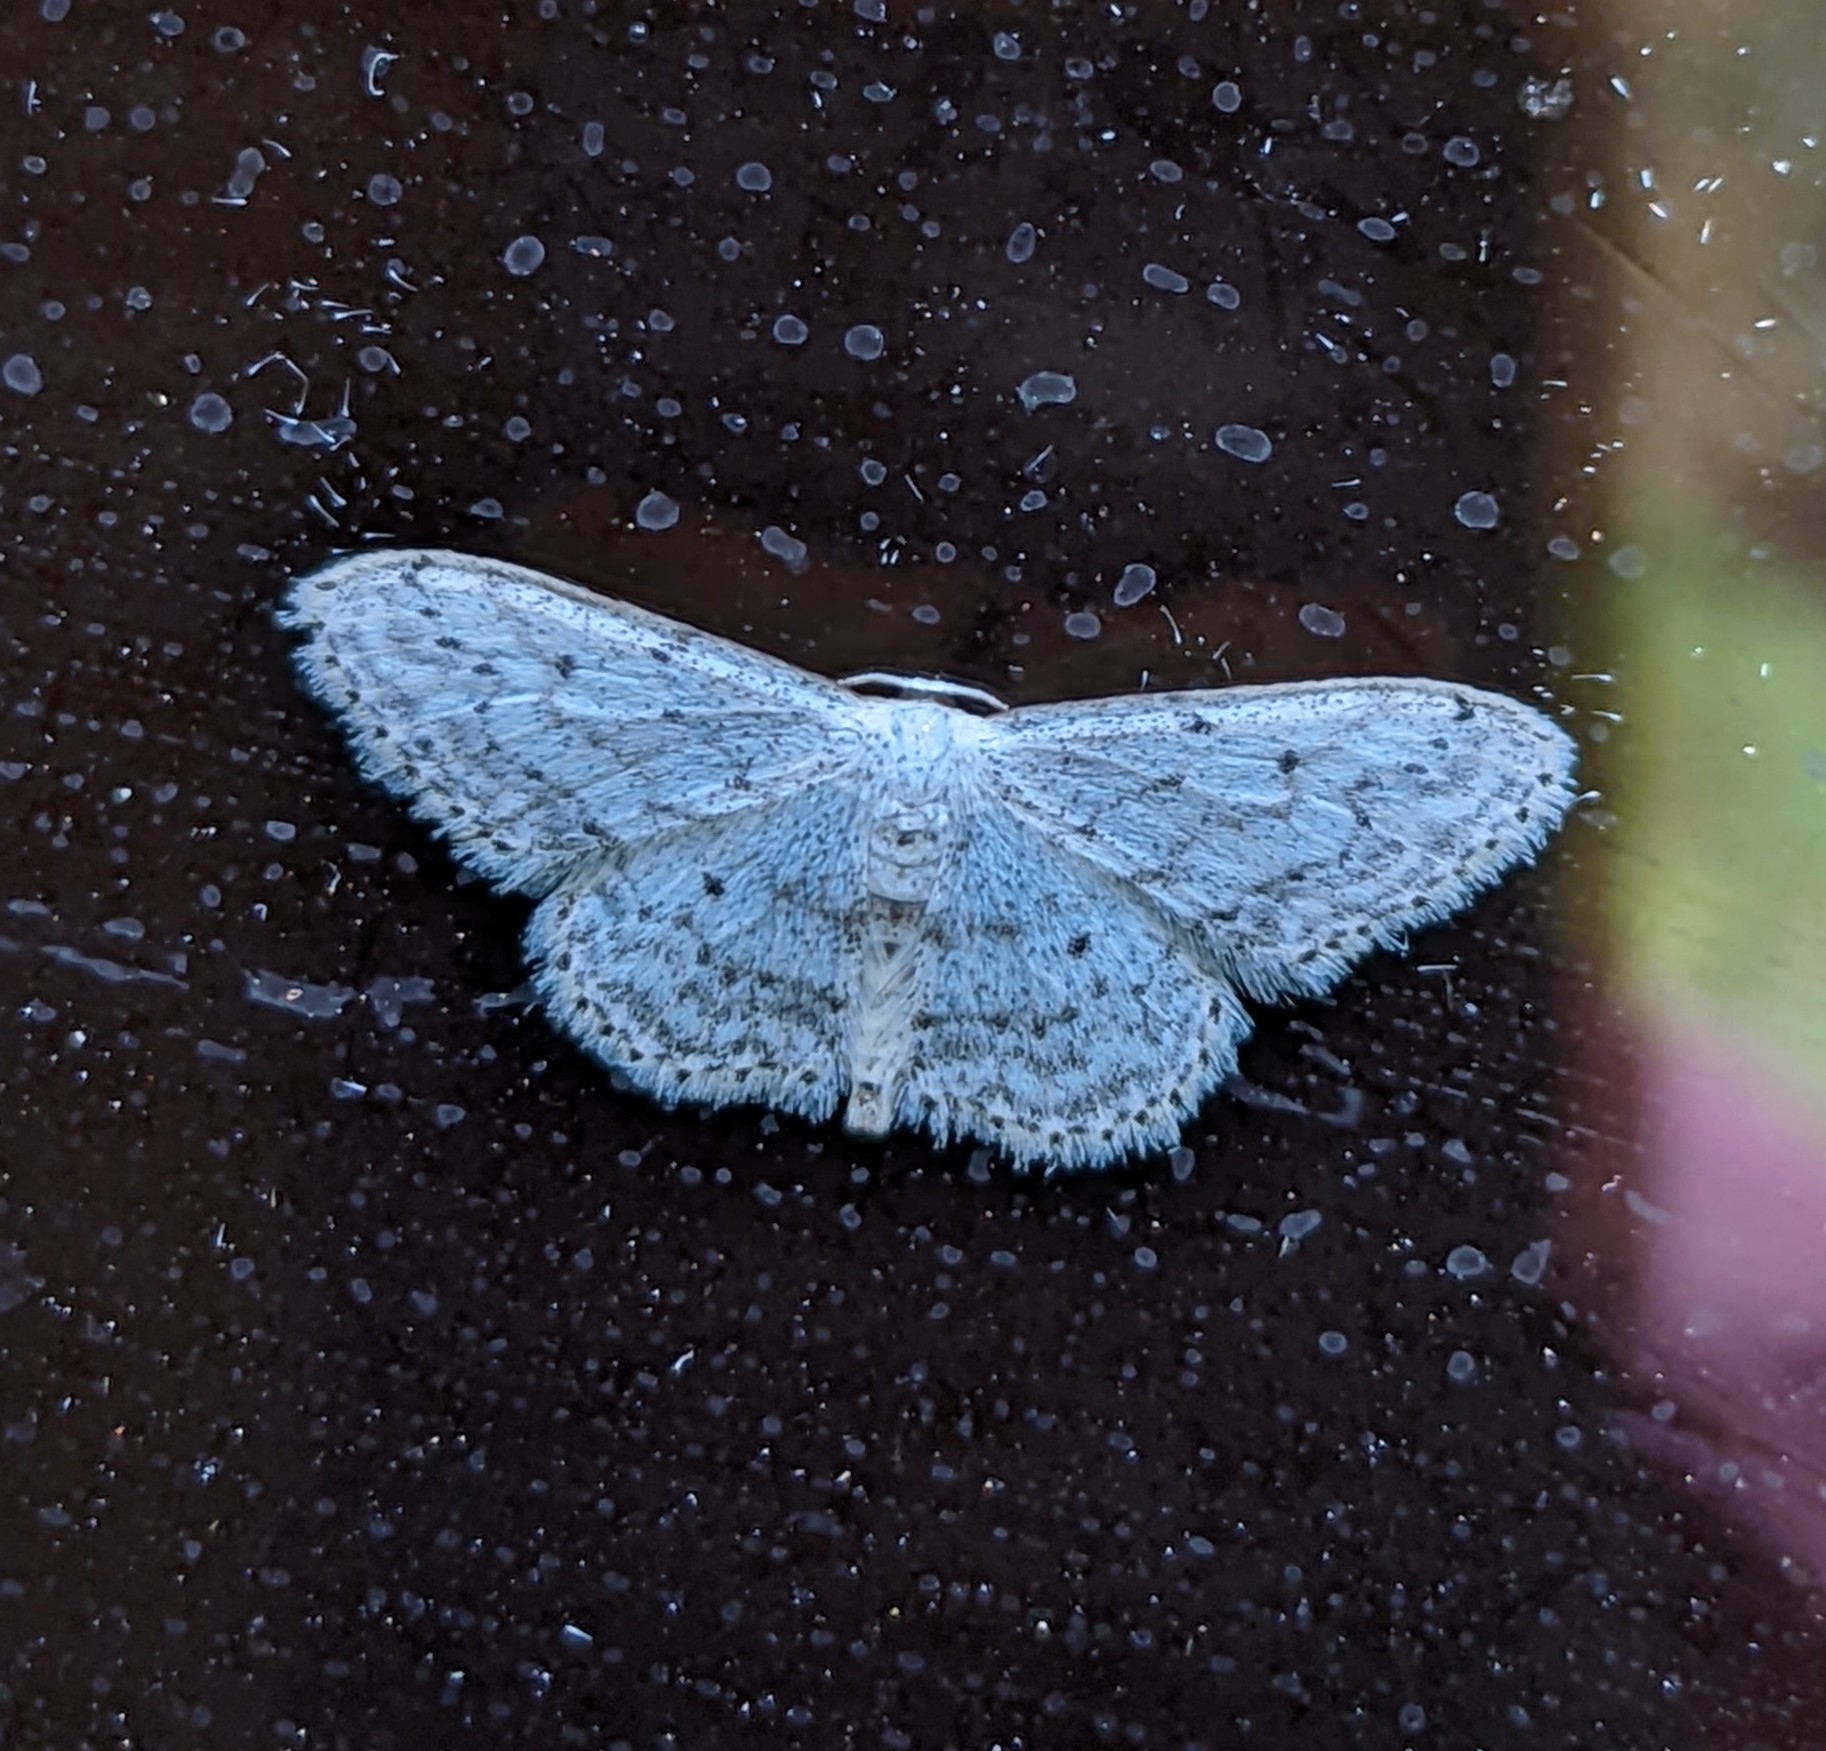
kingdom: Animalia
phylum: Arthropoda
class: Insecta
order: Lepidoptera
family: Geometridae
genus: Idaea
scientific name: Idaea seriata
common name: Small dusty wave
